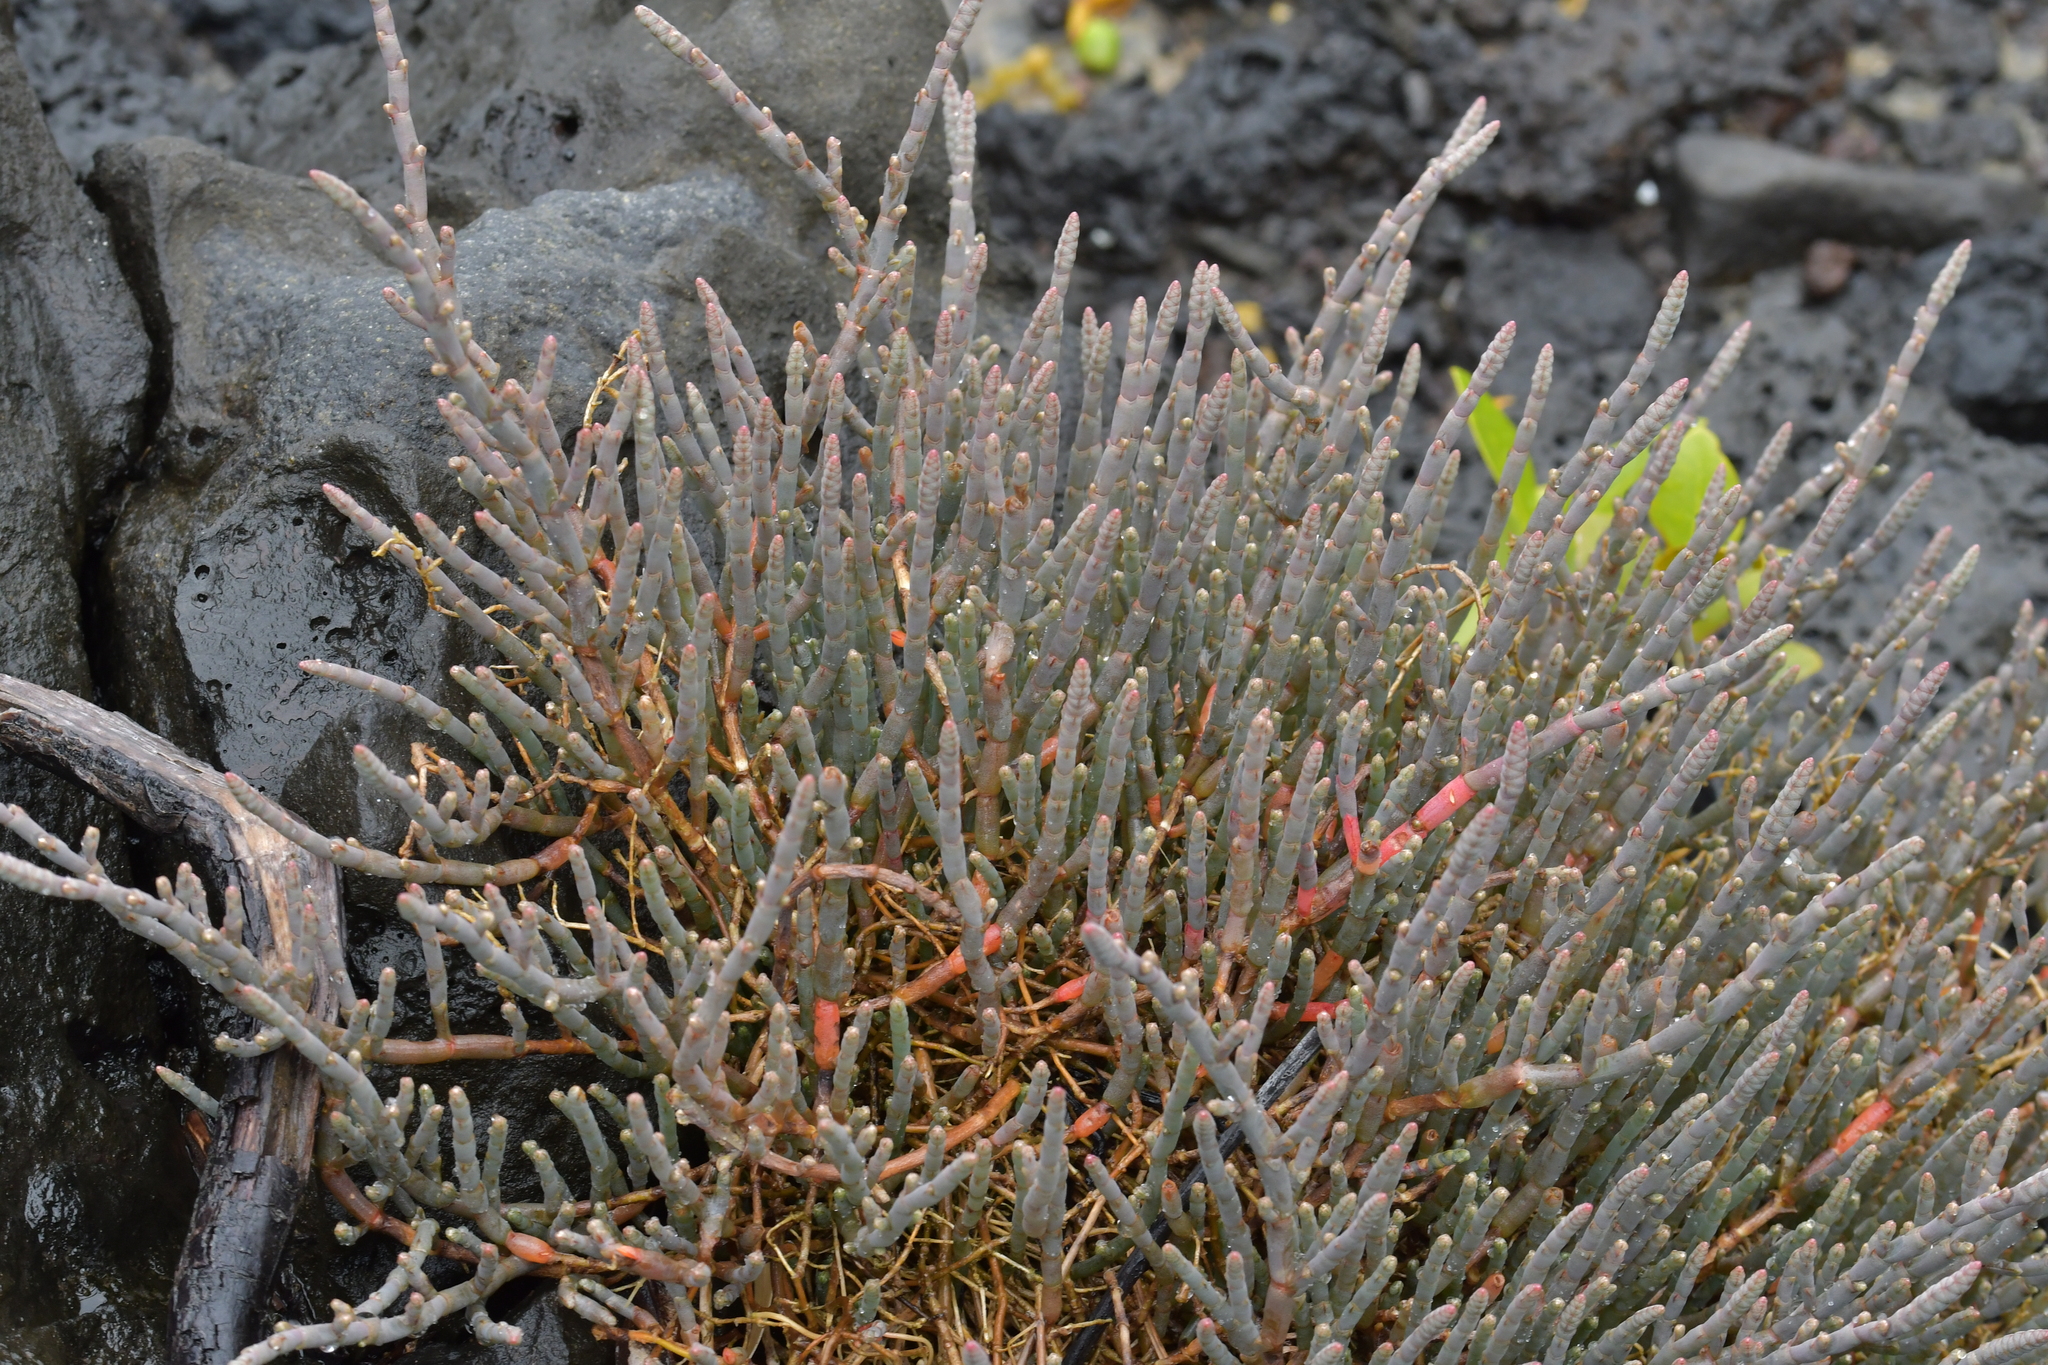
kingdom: Plantae
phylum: Tracheophyta
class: Magnoliopsida
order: Caryophyllales
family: Amaranthaceae
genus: Salicornia
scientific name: Salicornia quinqueflora
